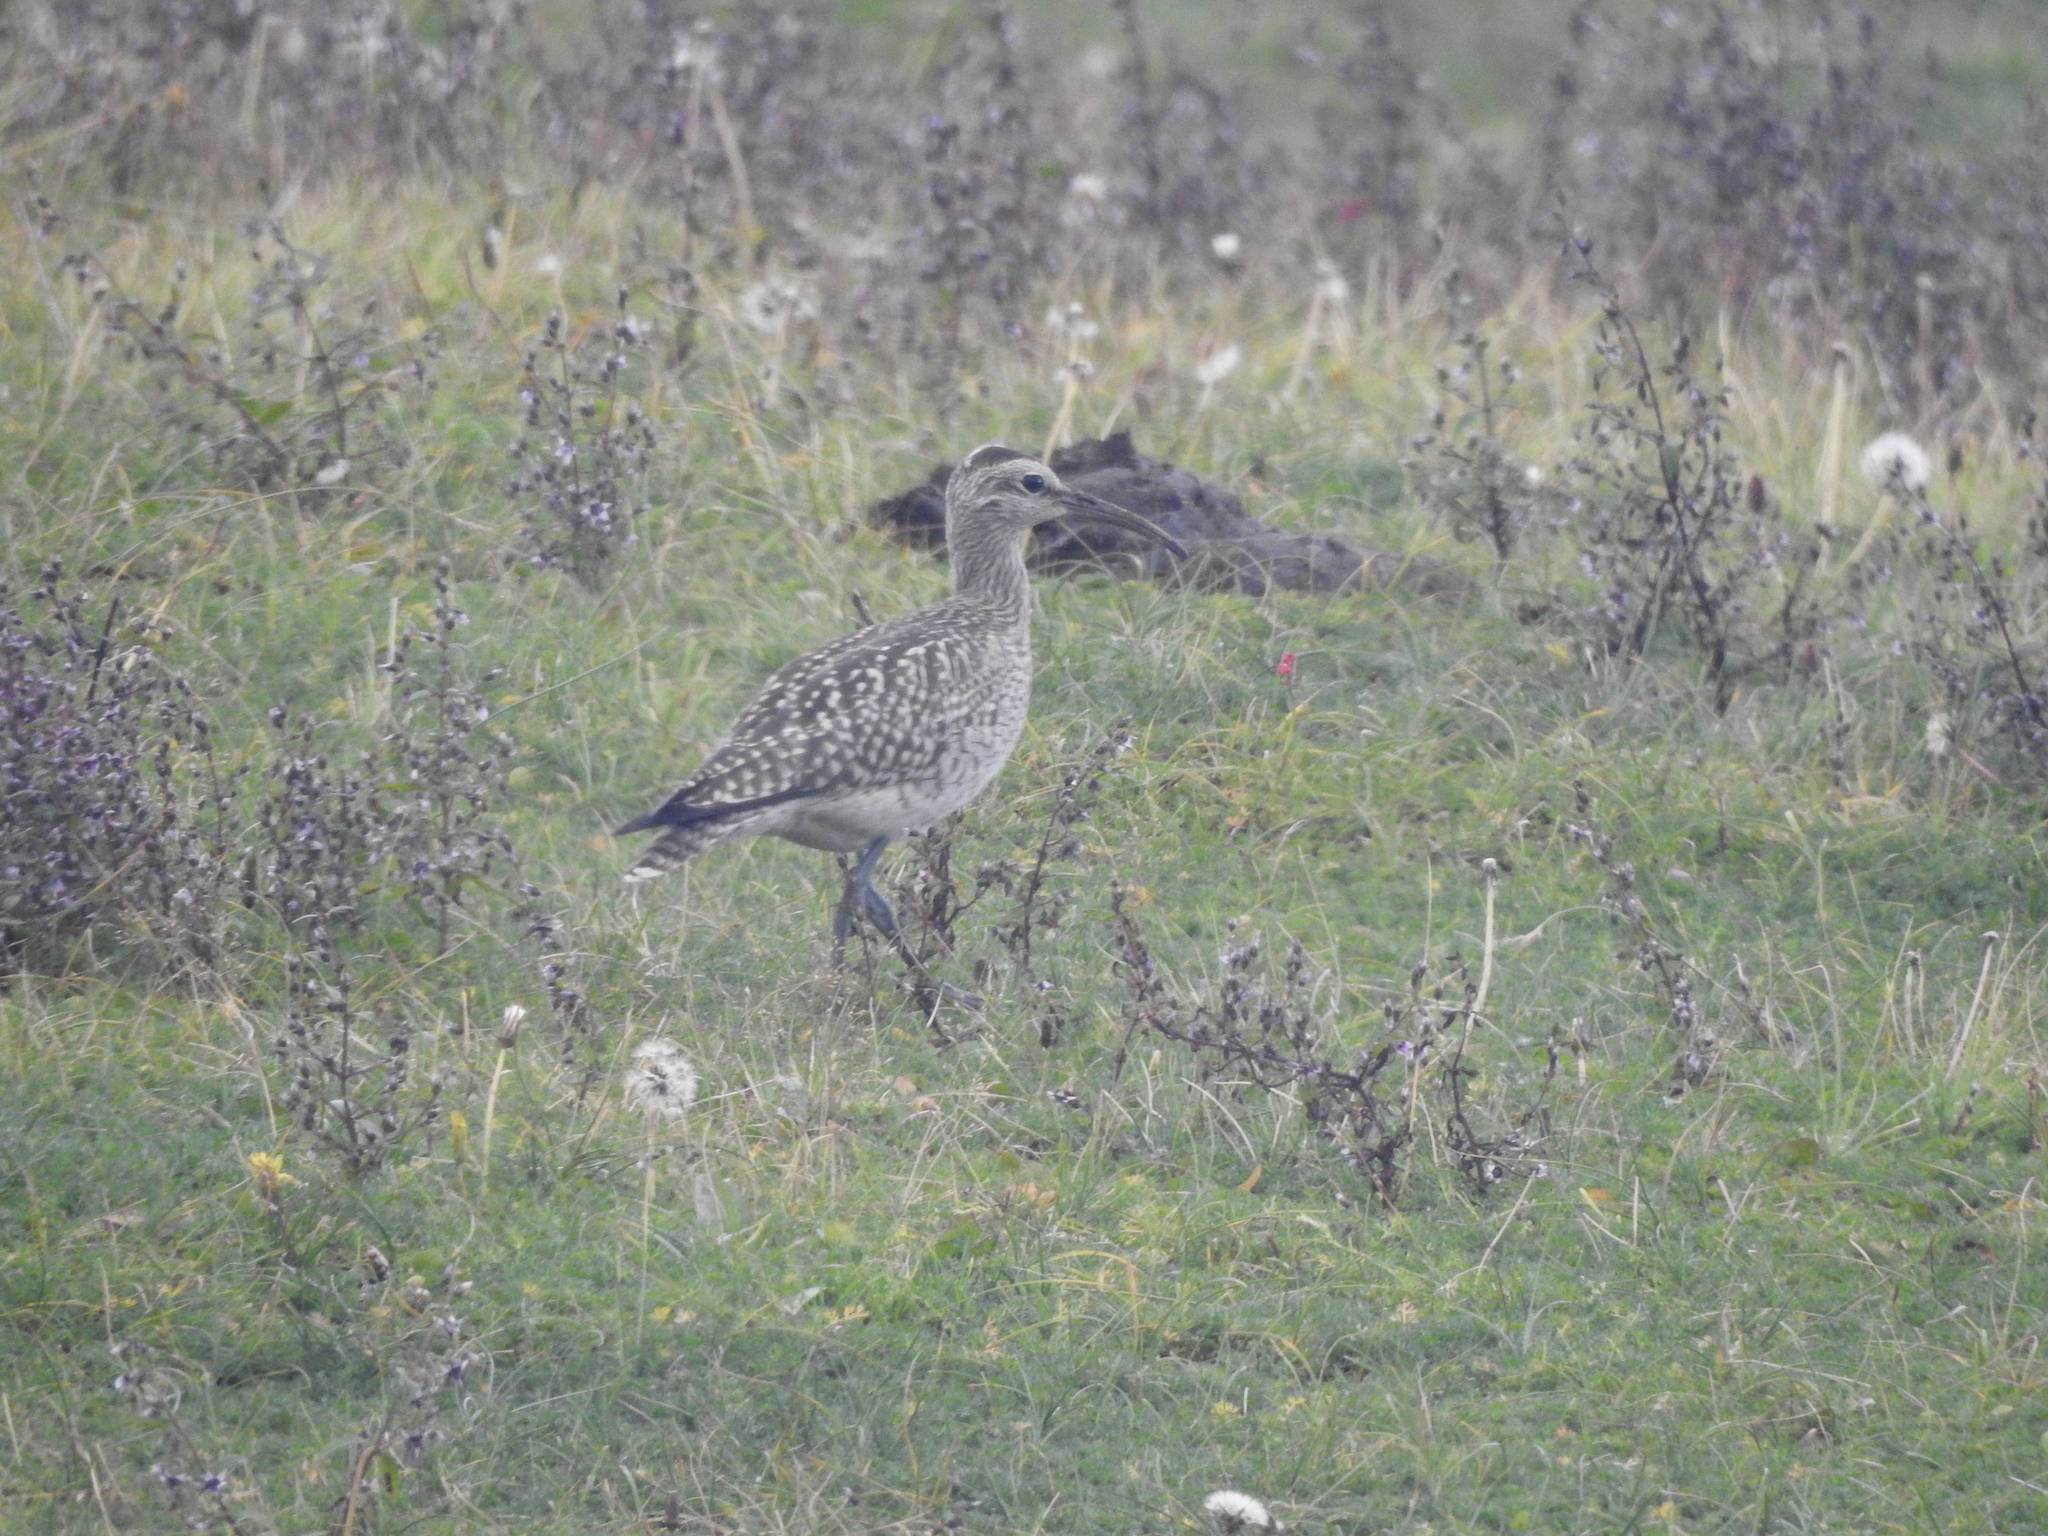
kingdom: Animalia
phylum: Chordata
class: Aves
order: Charadriiformes
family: Scolopacidae
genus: Numenius
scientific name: Numenius phaeopus
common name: Whimbrel
